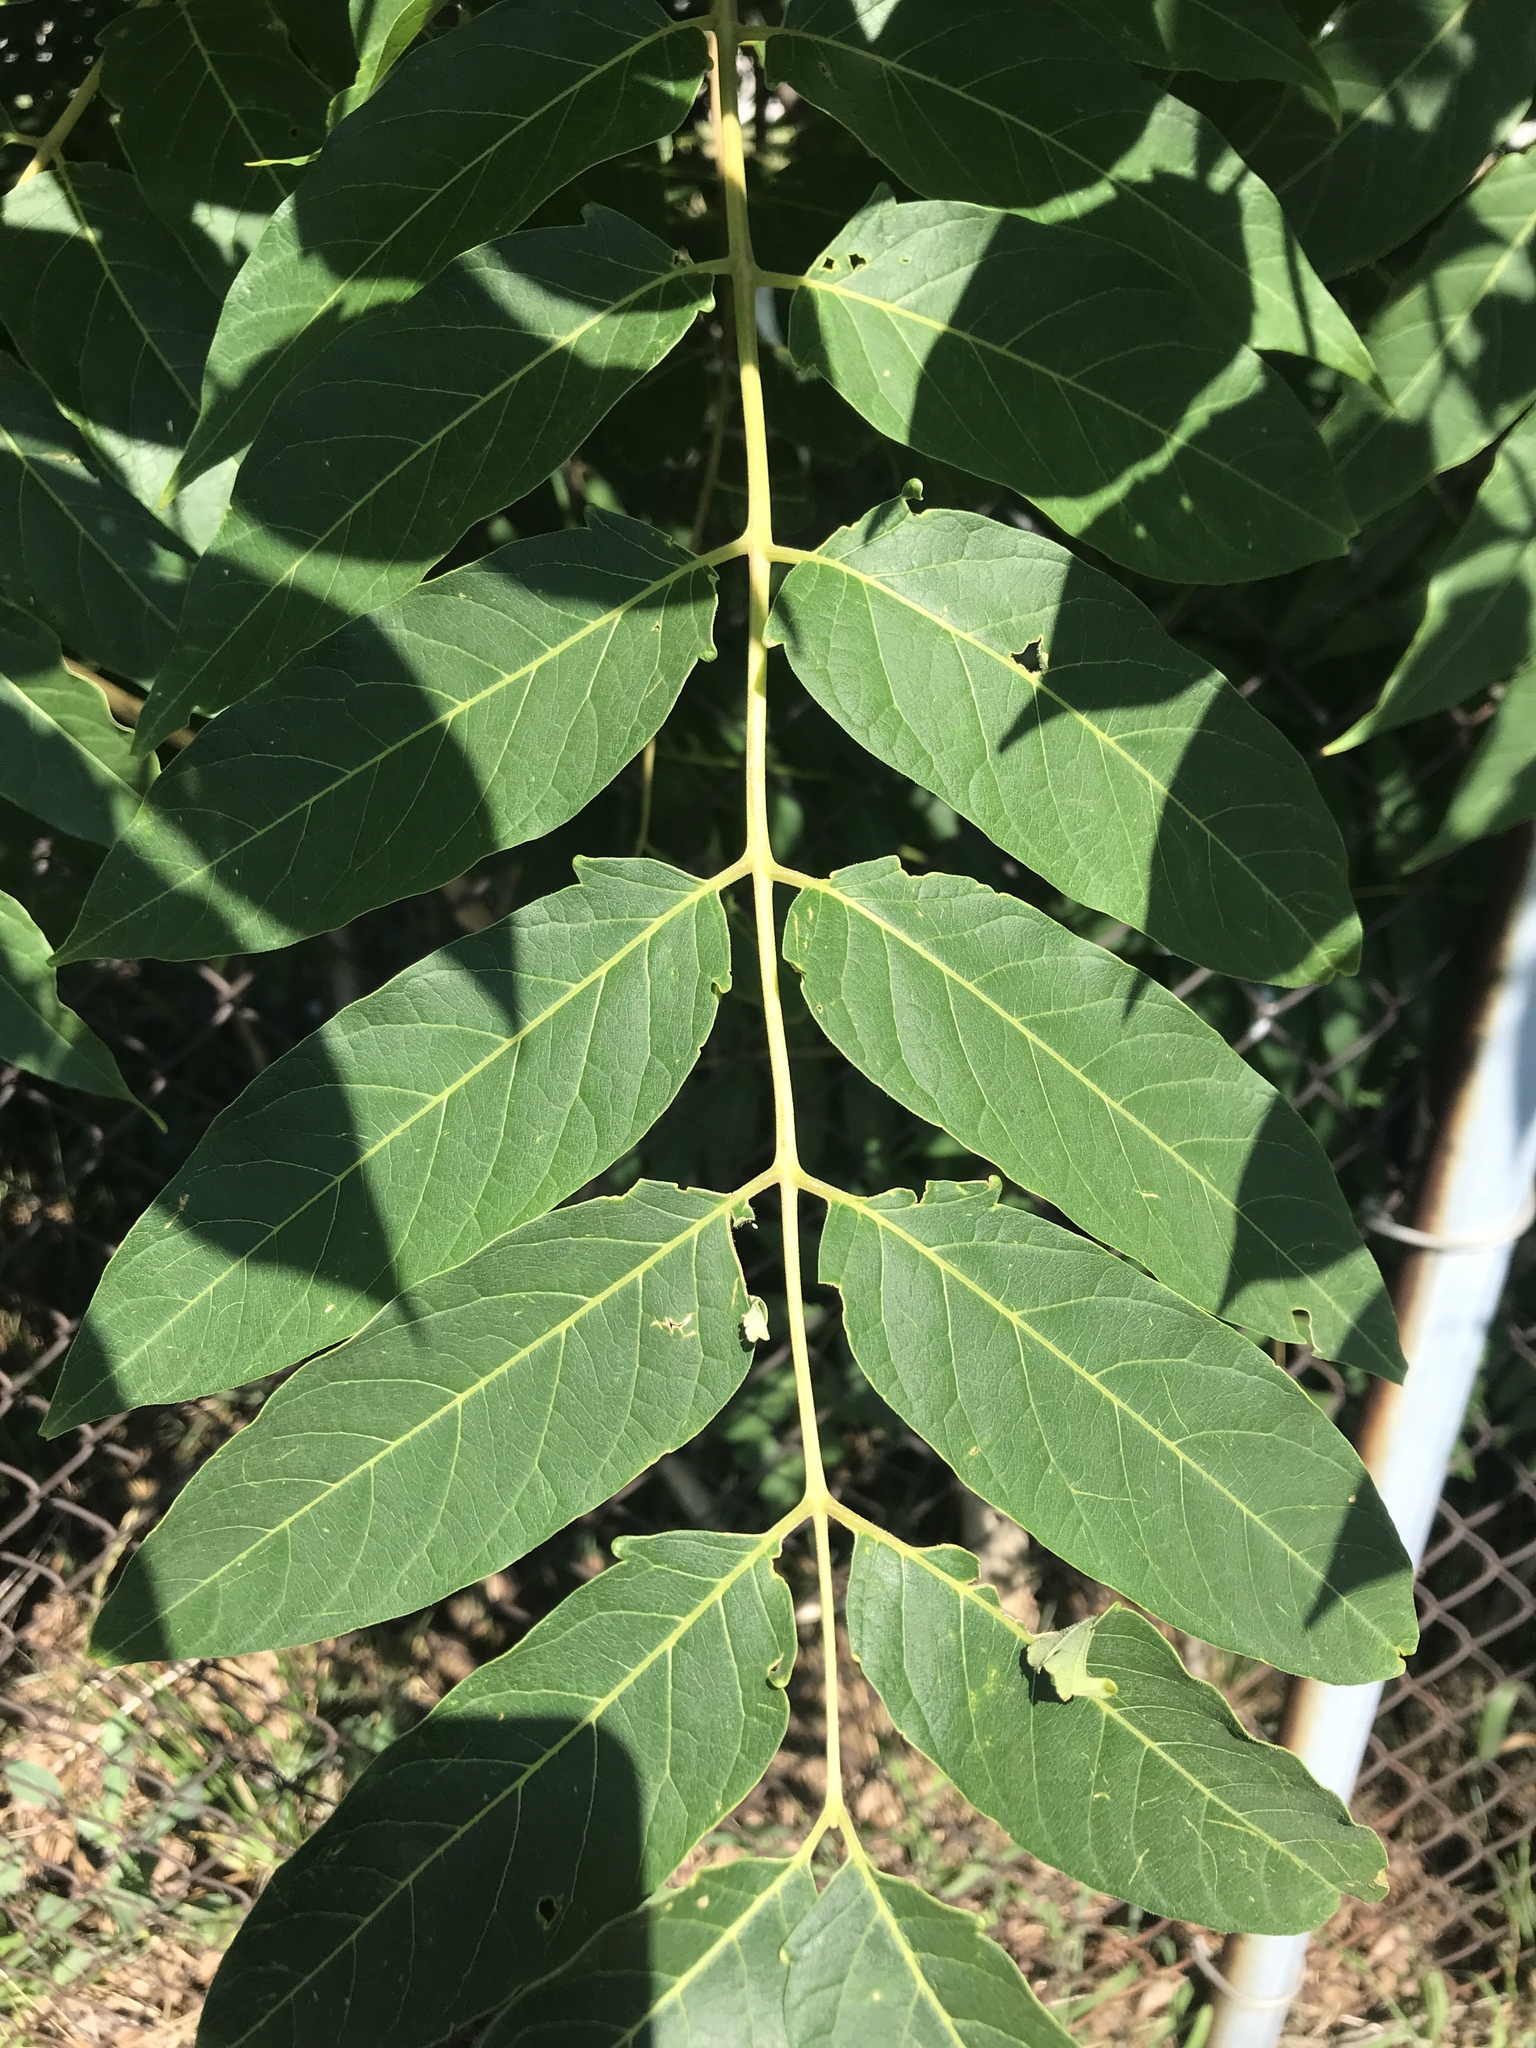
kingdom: Plantae
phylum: Tracheophyta
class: Magnoliopsida
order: Sapindales
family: Simaroubaceae
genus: Ailanthus
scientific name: Ailanthus altissima
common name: Tree-of-heaven
